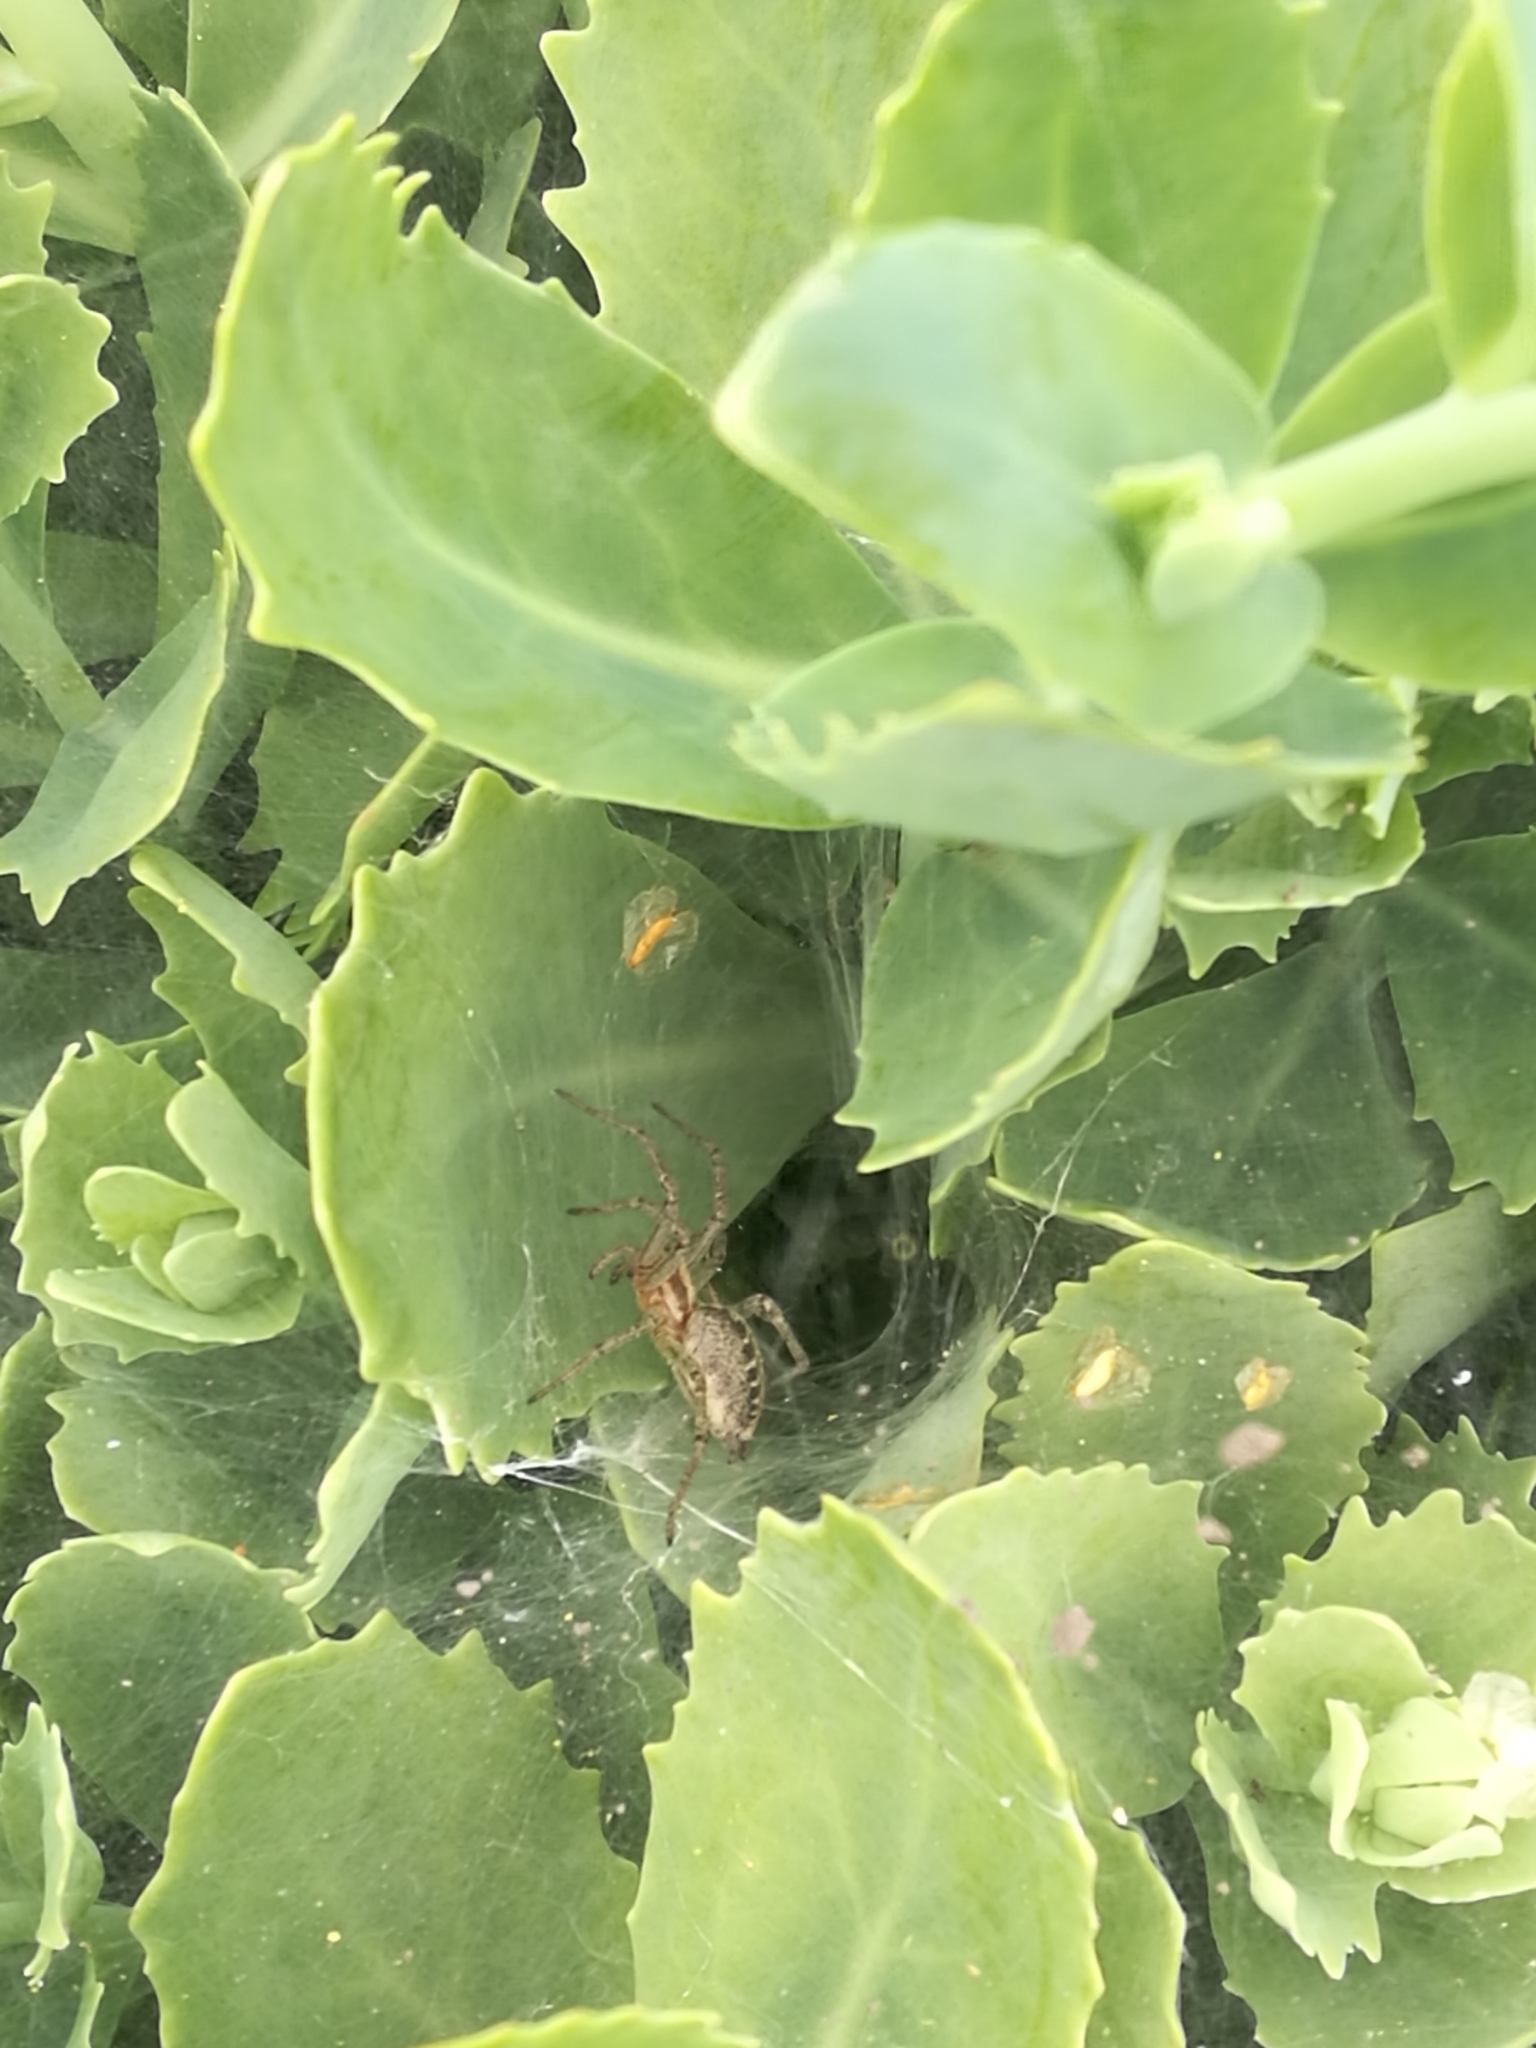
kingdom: Animalia
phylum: Arthropoda
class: Arachnida
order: Araneae
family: Agelenidae
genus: Agelena
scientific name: Agelena labyrinthica
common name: Labyrinth spider
